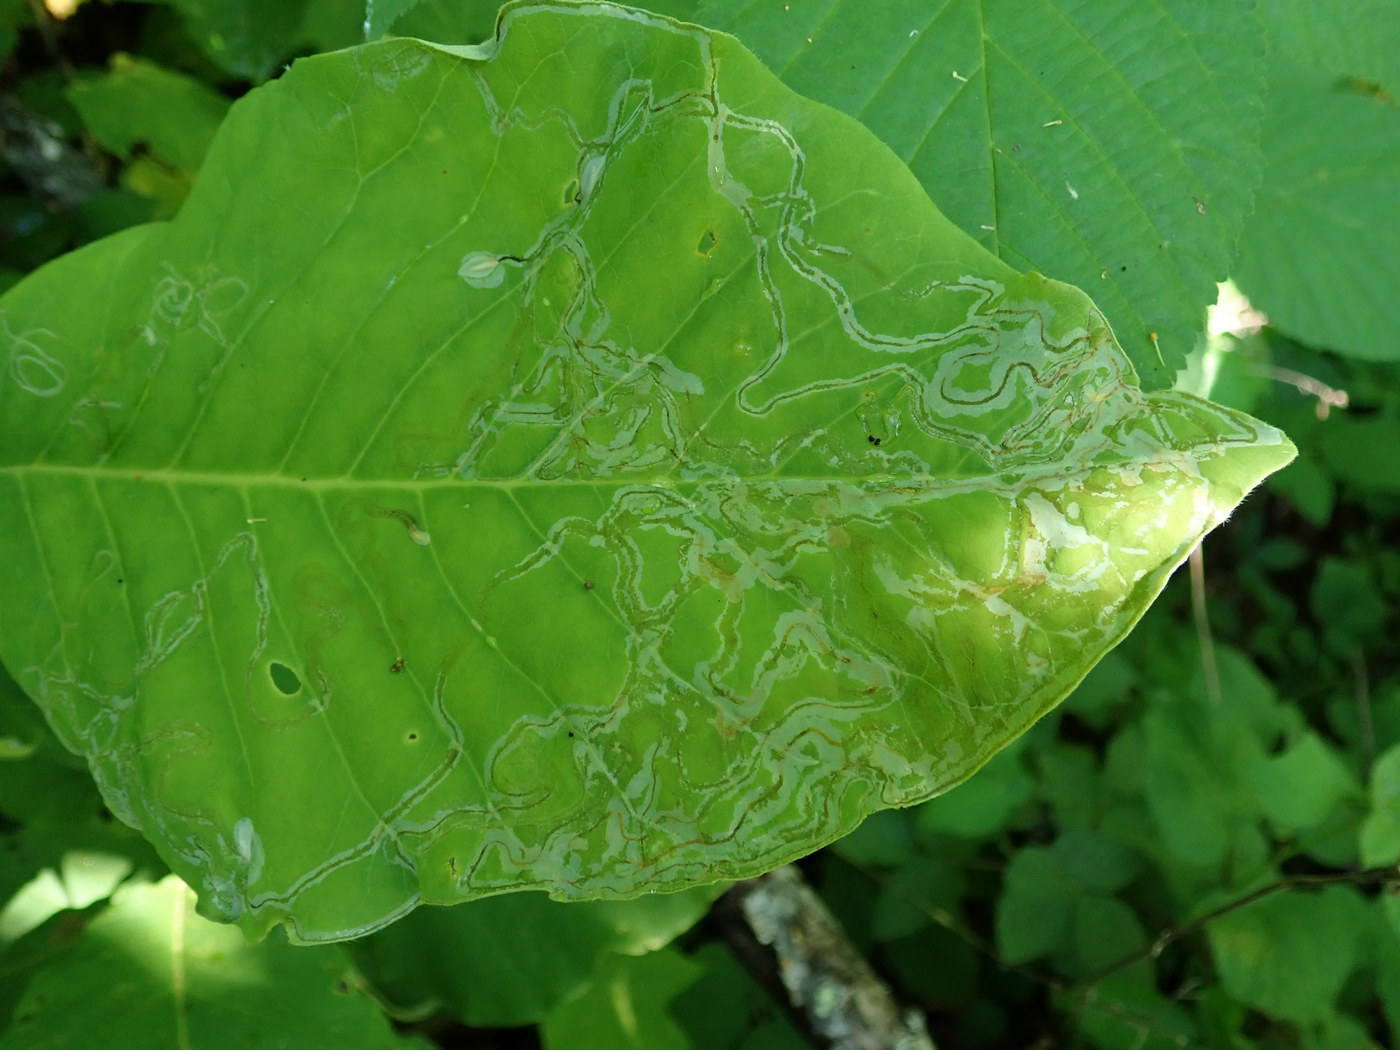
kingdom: Animalia
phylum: Arthropoda
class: Insecta
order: Lepidoptera
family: Gracillariidae
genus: Phyllocnistis
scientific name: Phyllocnistis liriodendronella
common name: Tulip tree leaf miner
